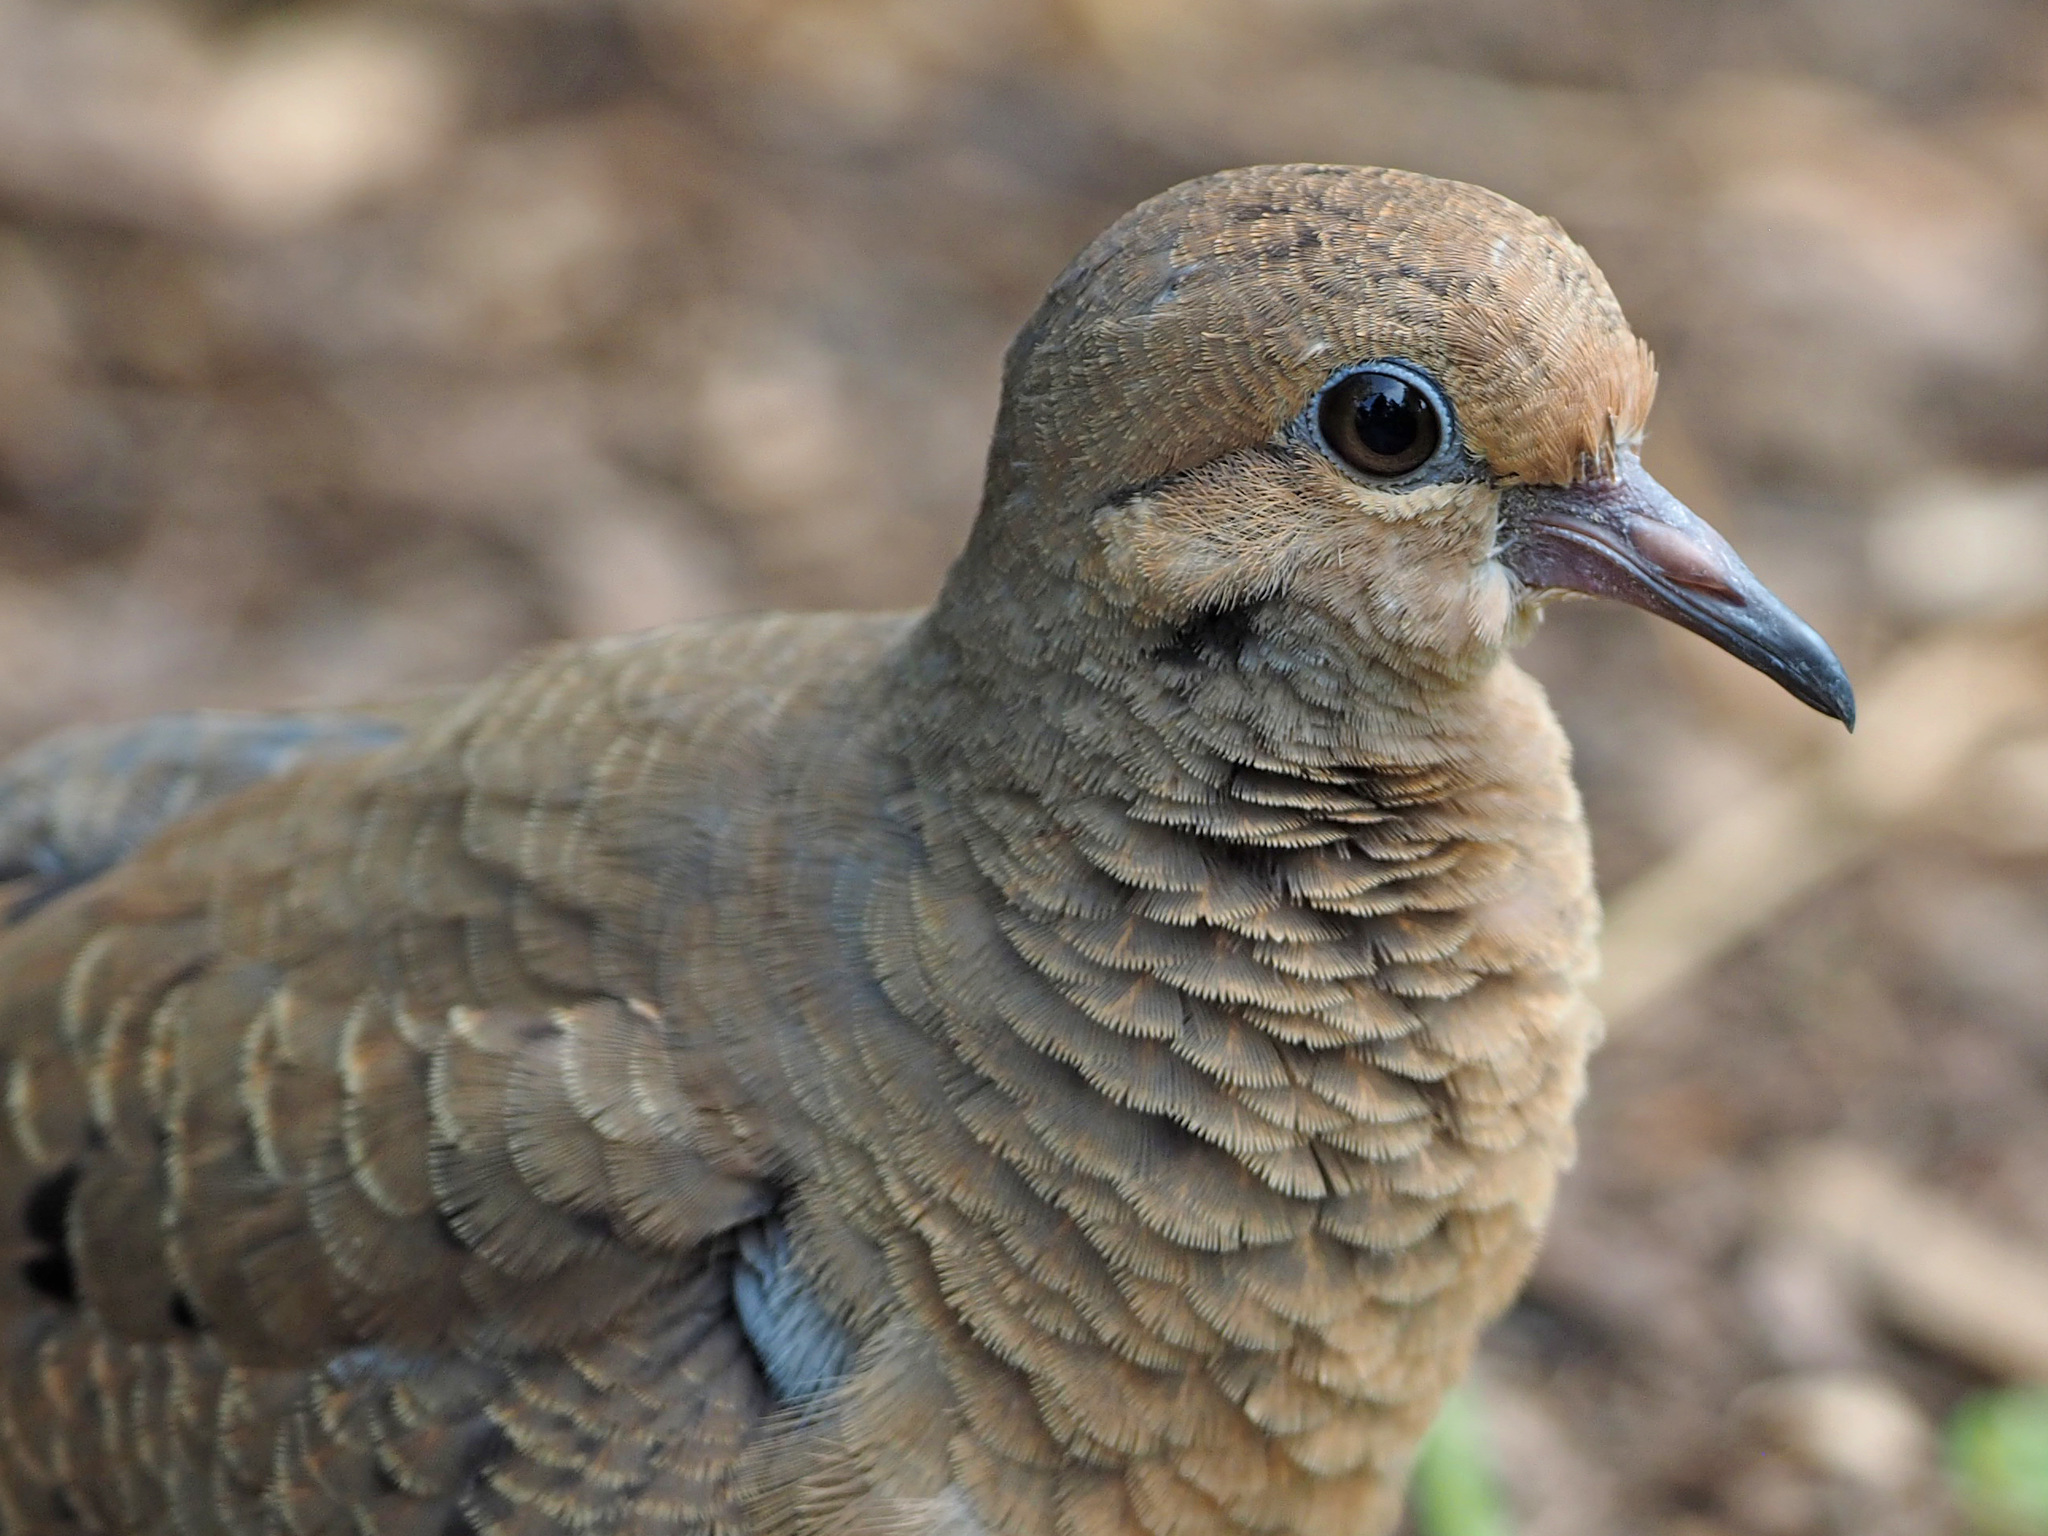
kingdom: Animalia
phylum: Chordata
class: Aves
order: Columbiformes
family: Columbidae
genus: Zenaida
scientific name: Zenaida macroura
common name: Mourning dove
